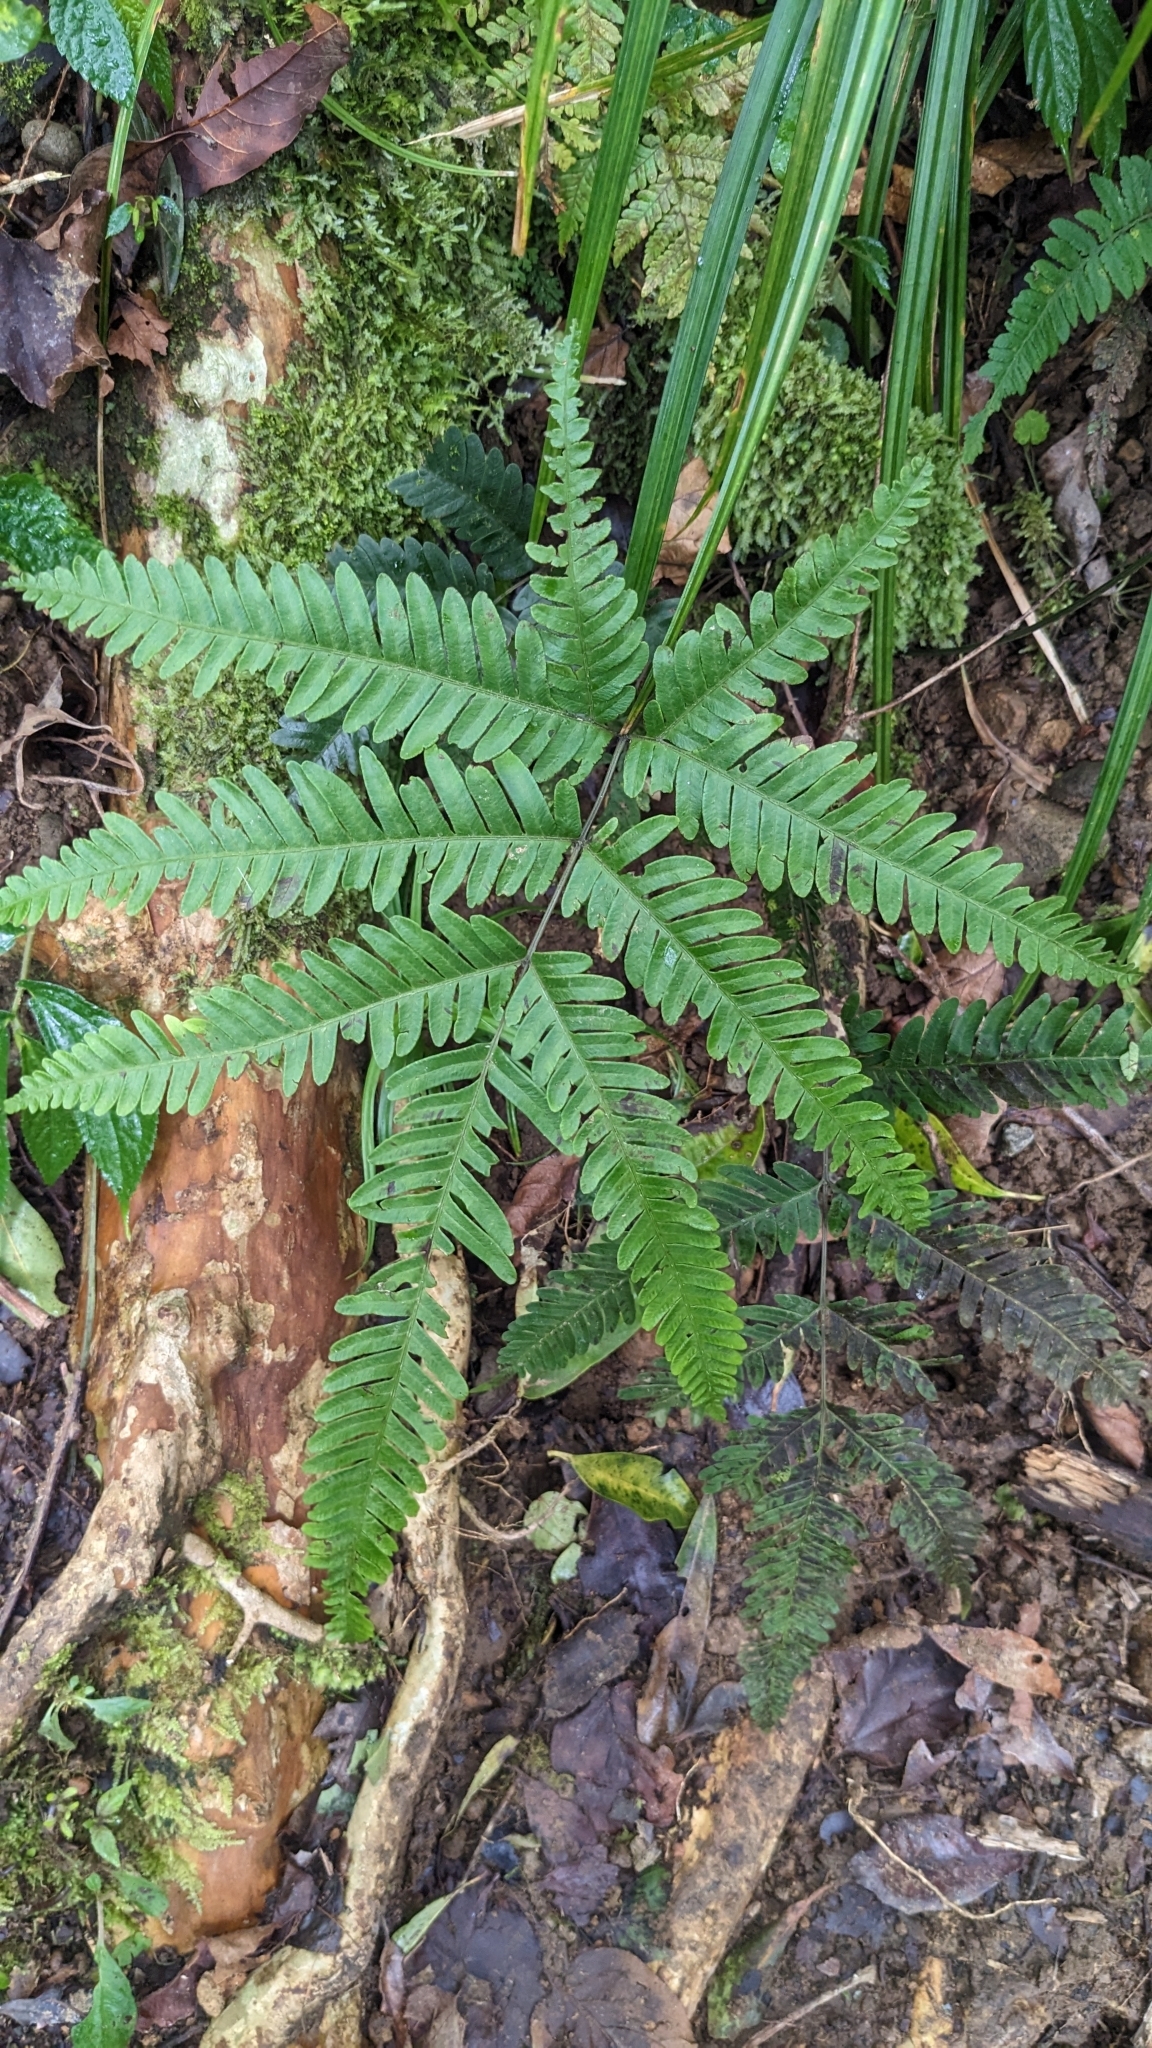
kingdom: Plantae
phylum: Tracheophyta
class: Polypodiopsida
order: Polypodiales
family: Pteridaceae
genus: Pteris
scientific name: Pteris fauriei
